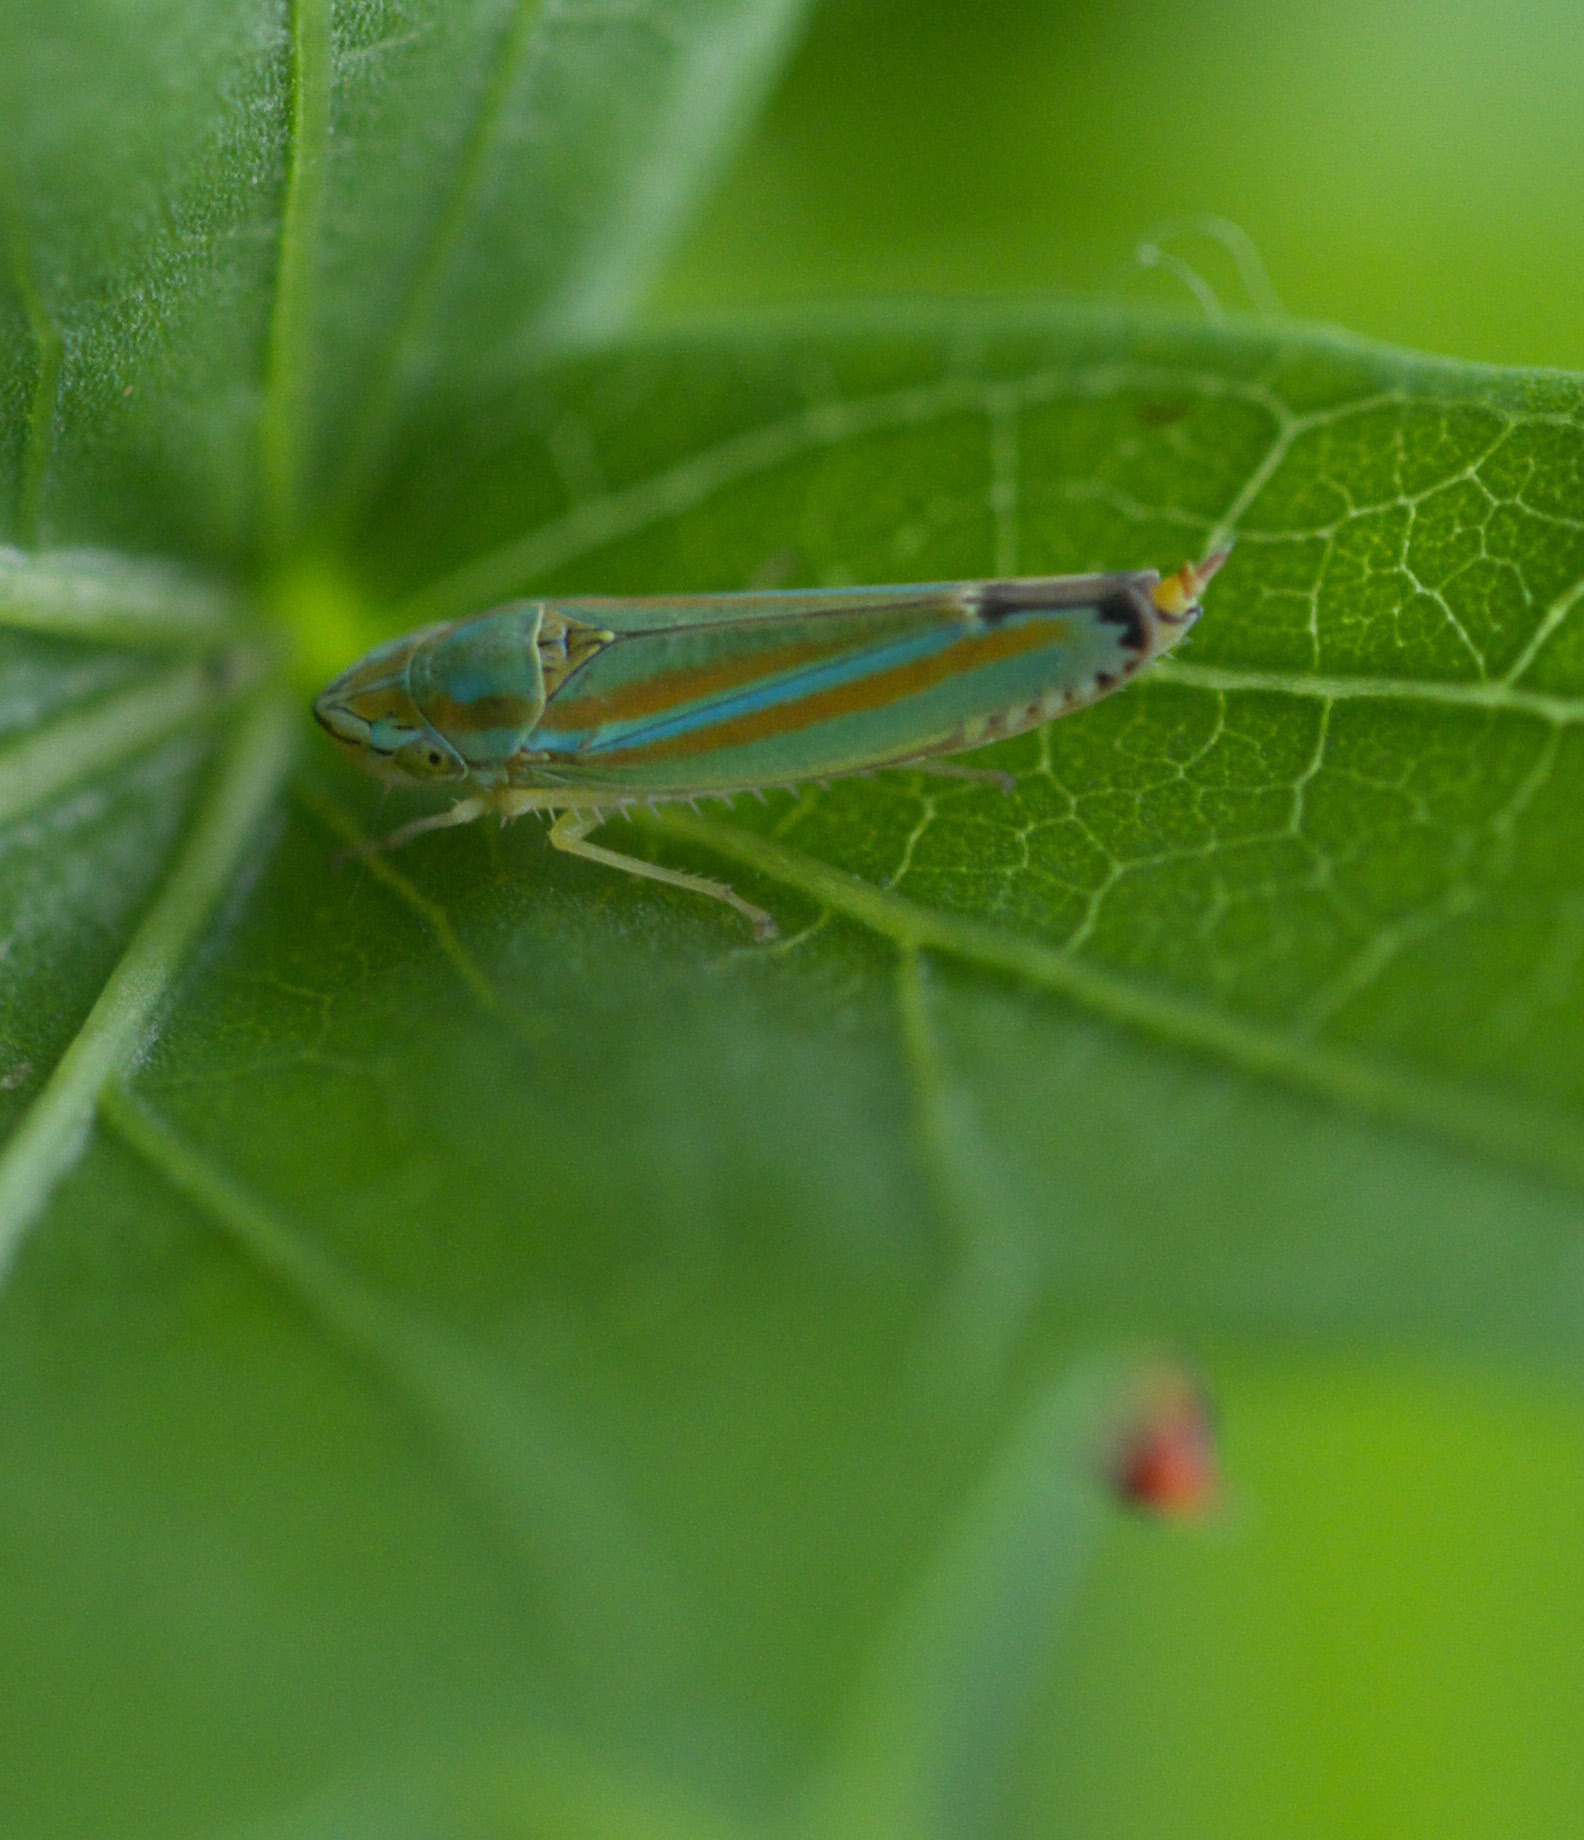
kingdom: Animalia
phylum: Arthropoda
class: Insecta
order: Hemiptera
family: Cicadellidae
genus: Graphocephala
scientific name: Graphocephala versuta
